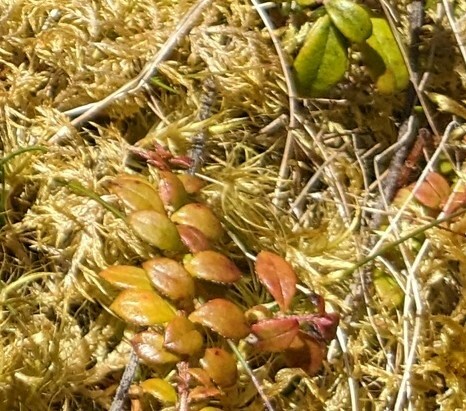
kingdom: Plantae
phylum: Tracheophyta
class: Magnoliopsida
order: Ericales
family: Ericaceae
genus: Gaultheria
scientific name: Gaultheria hispidula
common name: Cancer wintergreen
